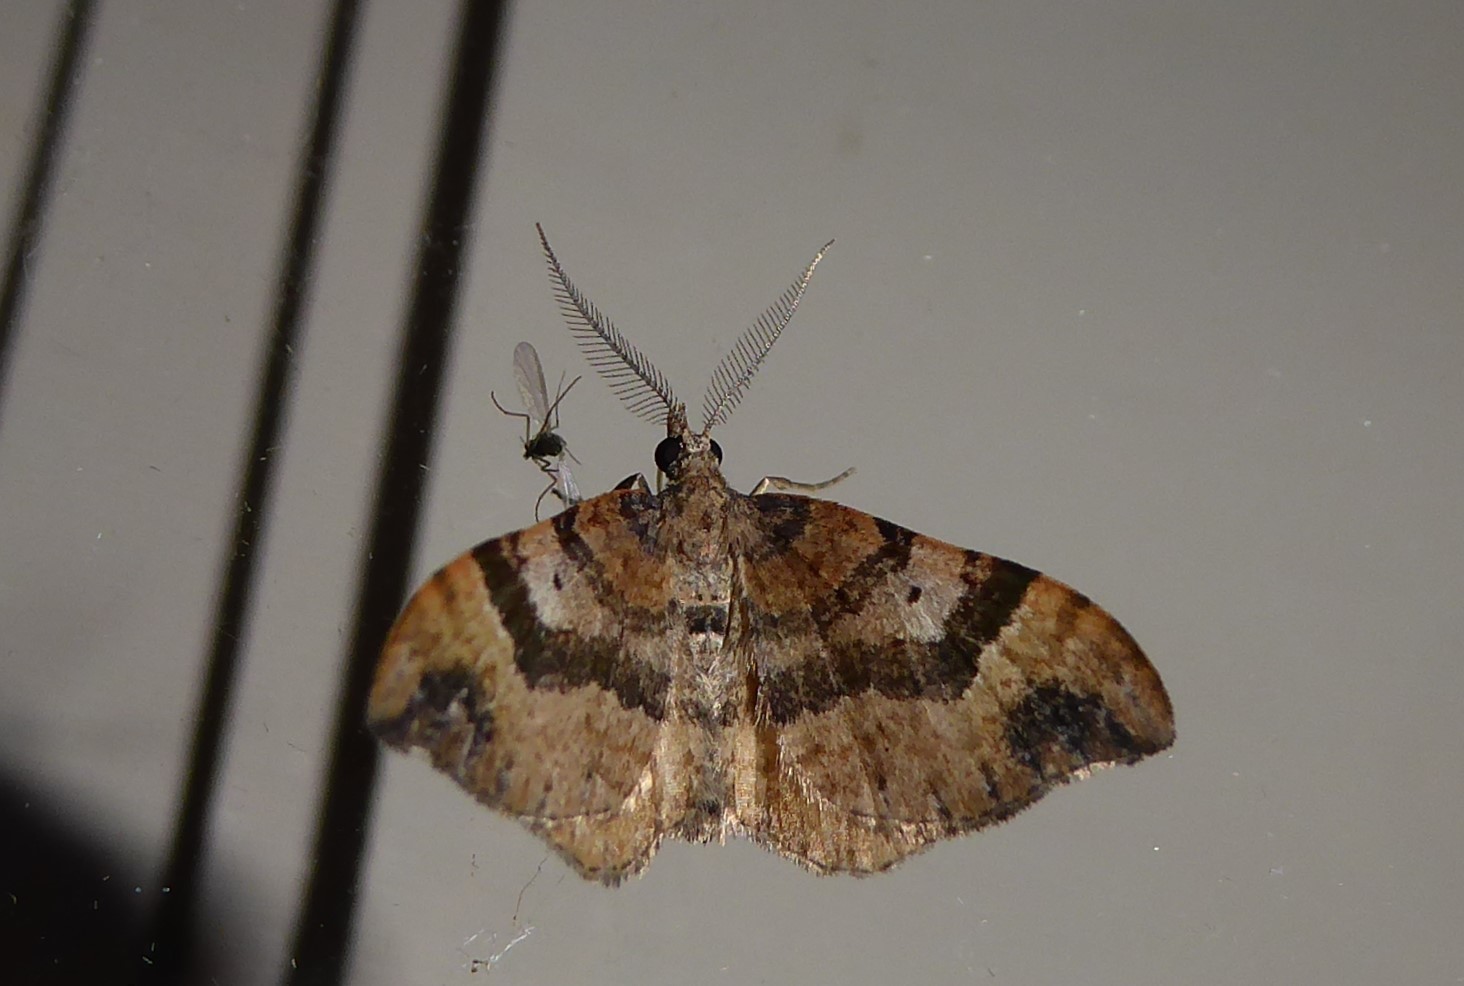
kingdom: Animalia
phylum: Arthropoda
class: Insecta
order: Lepidoptera
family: Geometridae
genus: Homodotis
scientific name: Homodotis megaspilata
